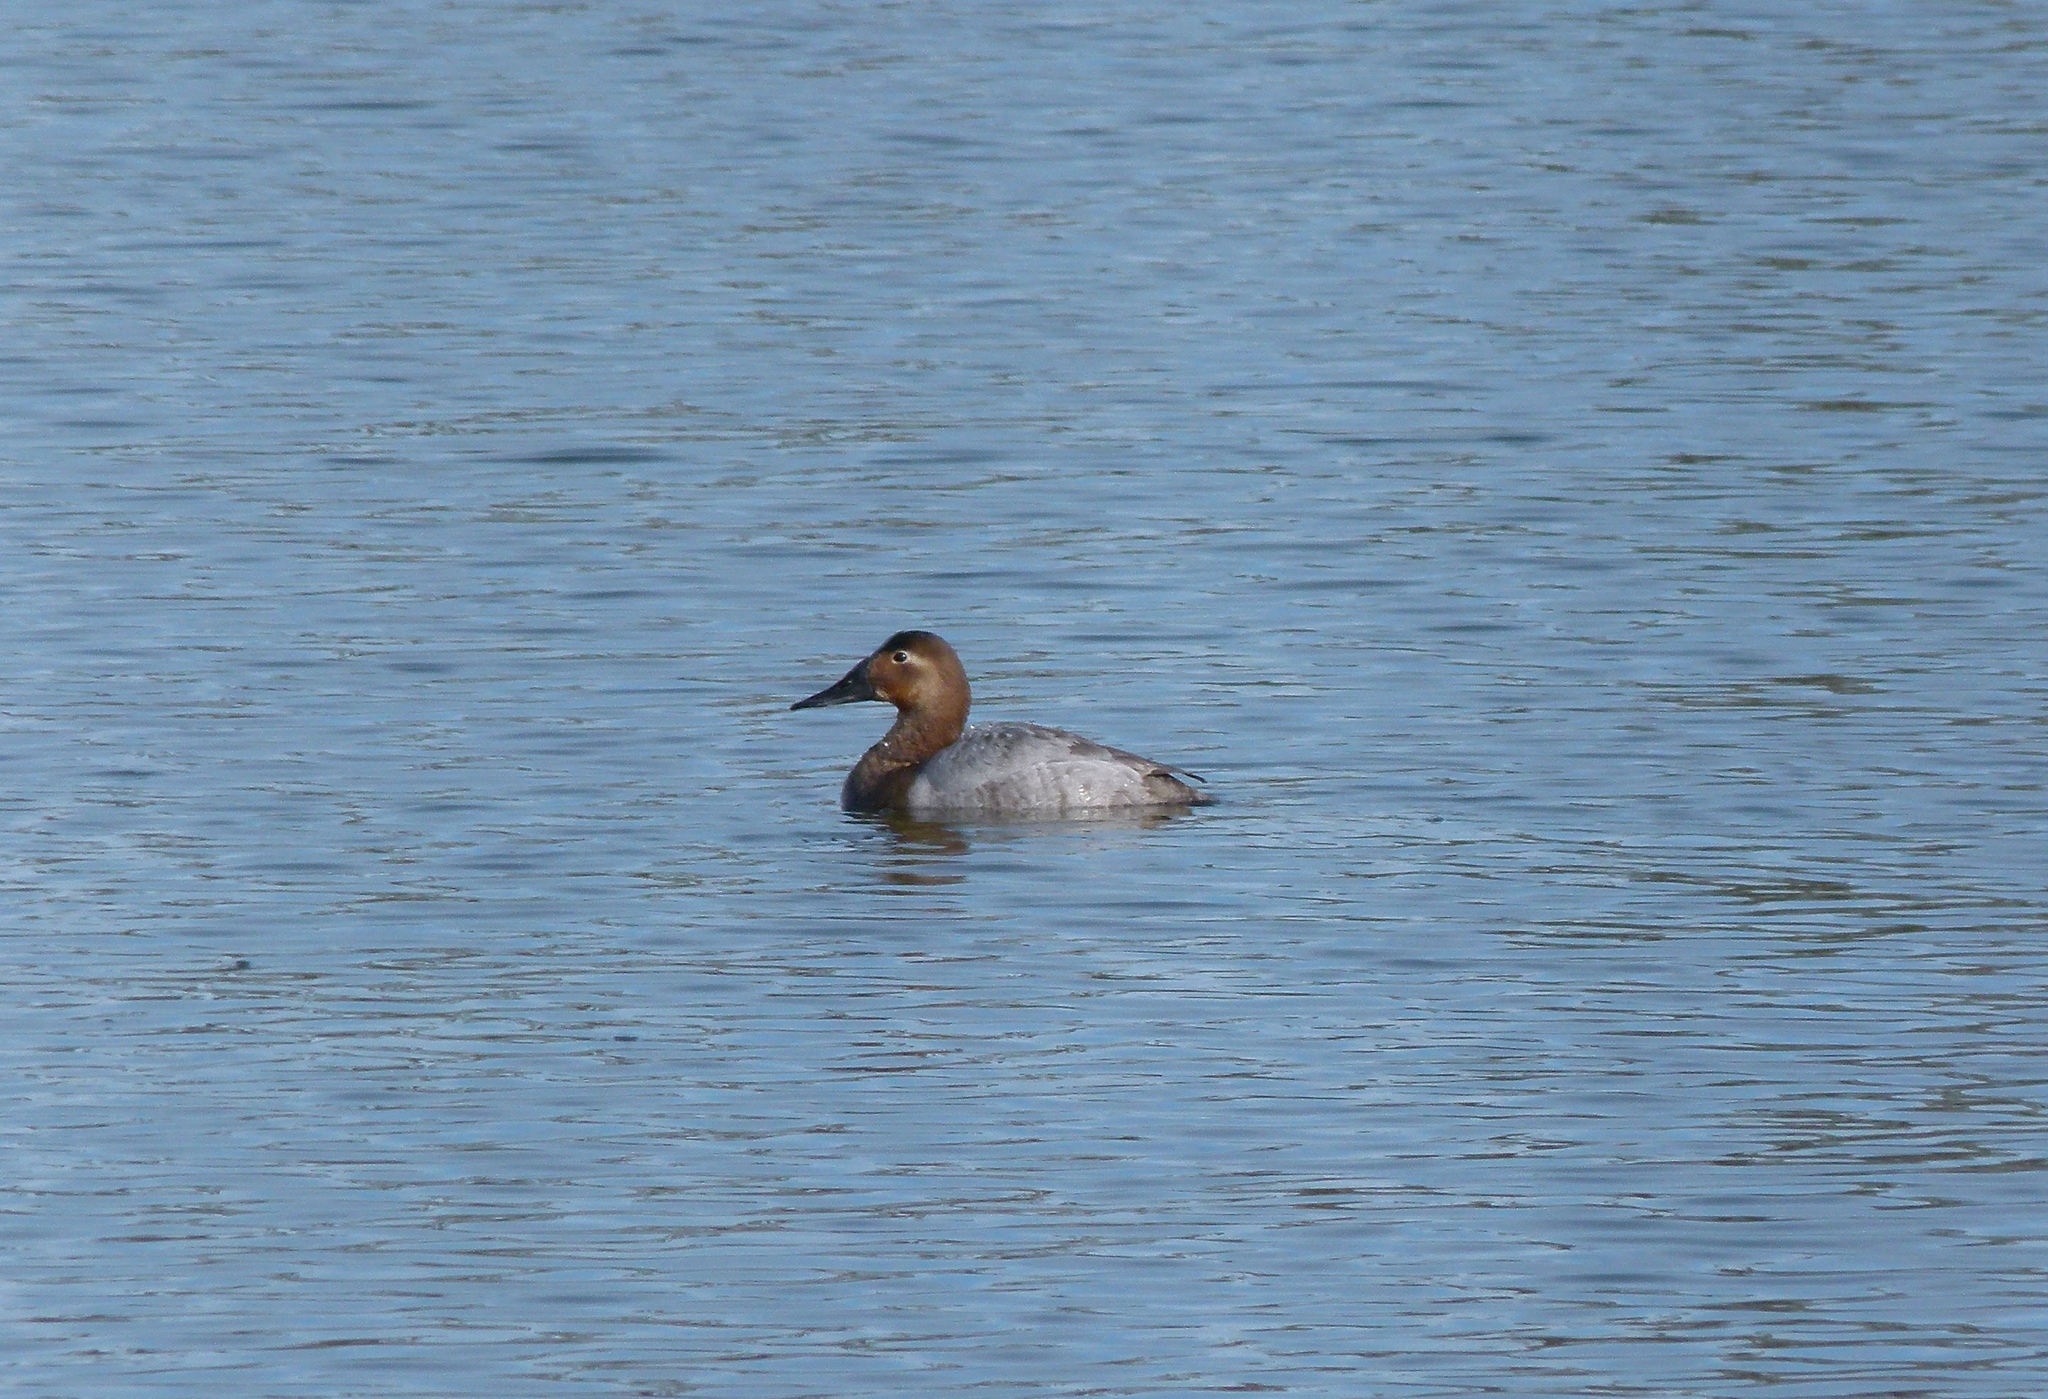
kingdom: Animalia
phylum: Chordata
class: Aves
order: Anseriformes
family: Anatidae
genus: Aythya
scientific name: Aythya valisineria
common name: Canvasback
